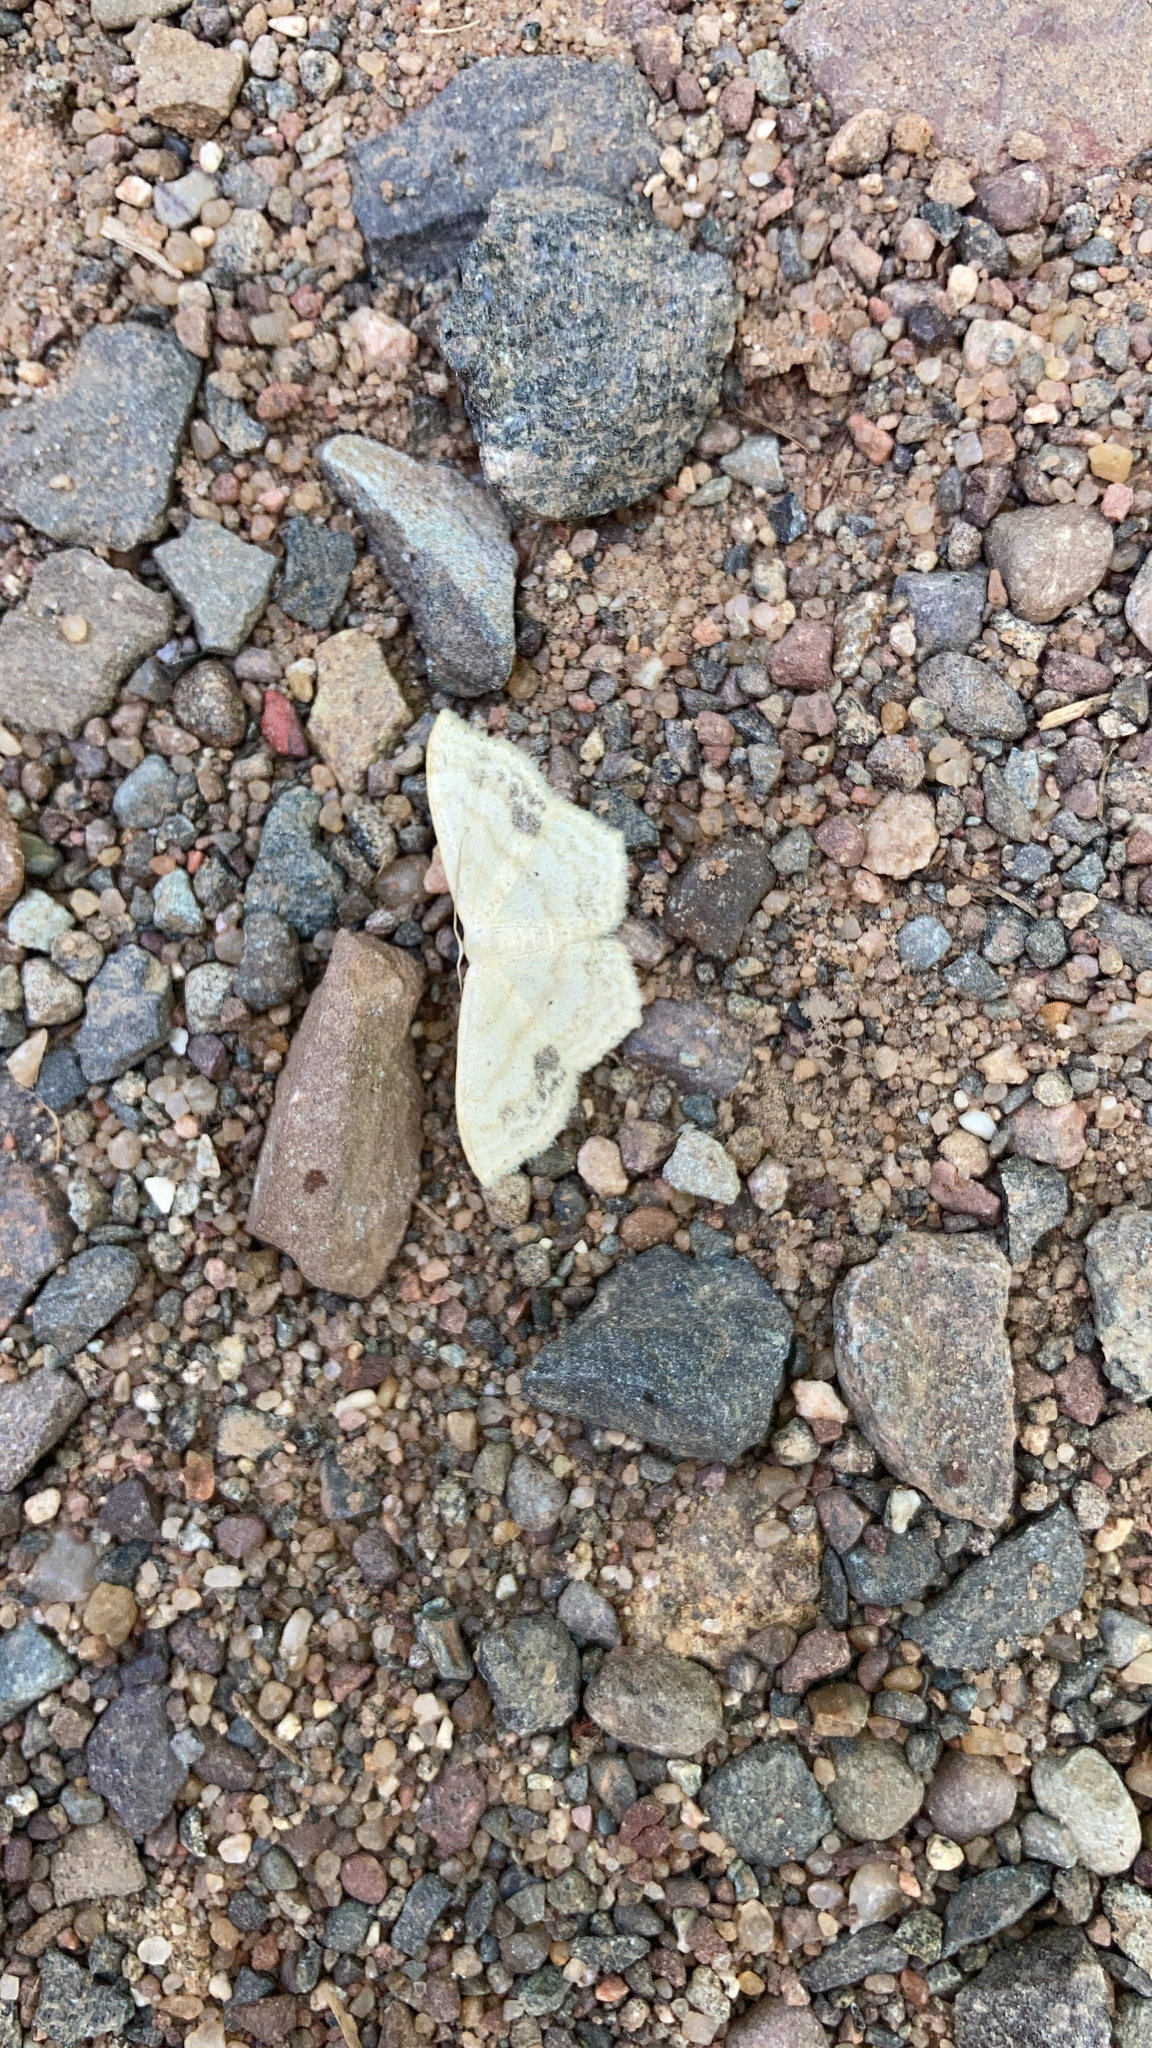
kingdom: Animalia
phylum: Arthropoda
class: Insecta
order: Lepidoptera
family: Geometridae
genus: Scopula
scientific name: Scopula limboundata
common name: Large lace border
